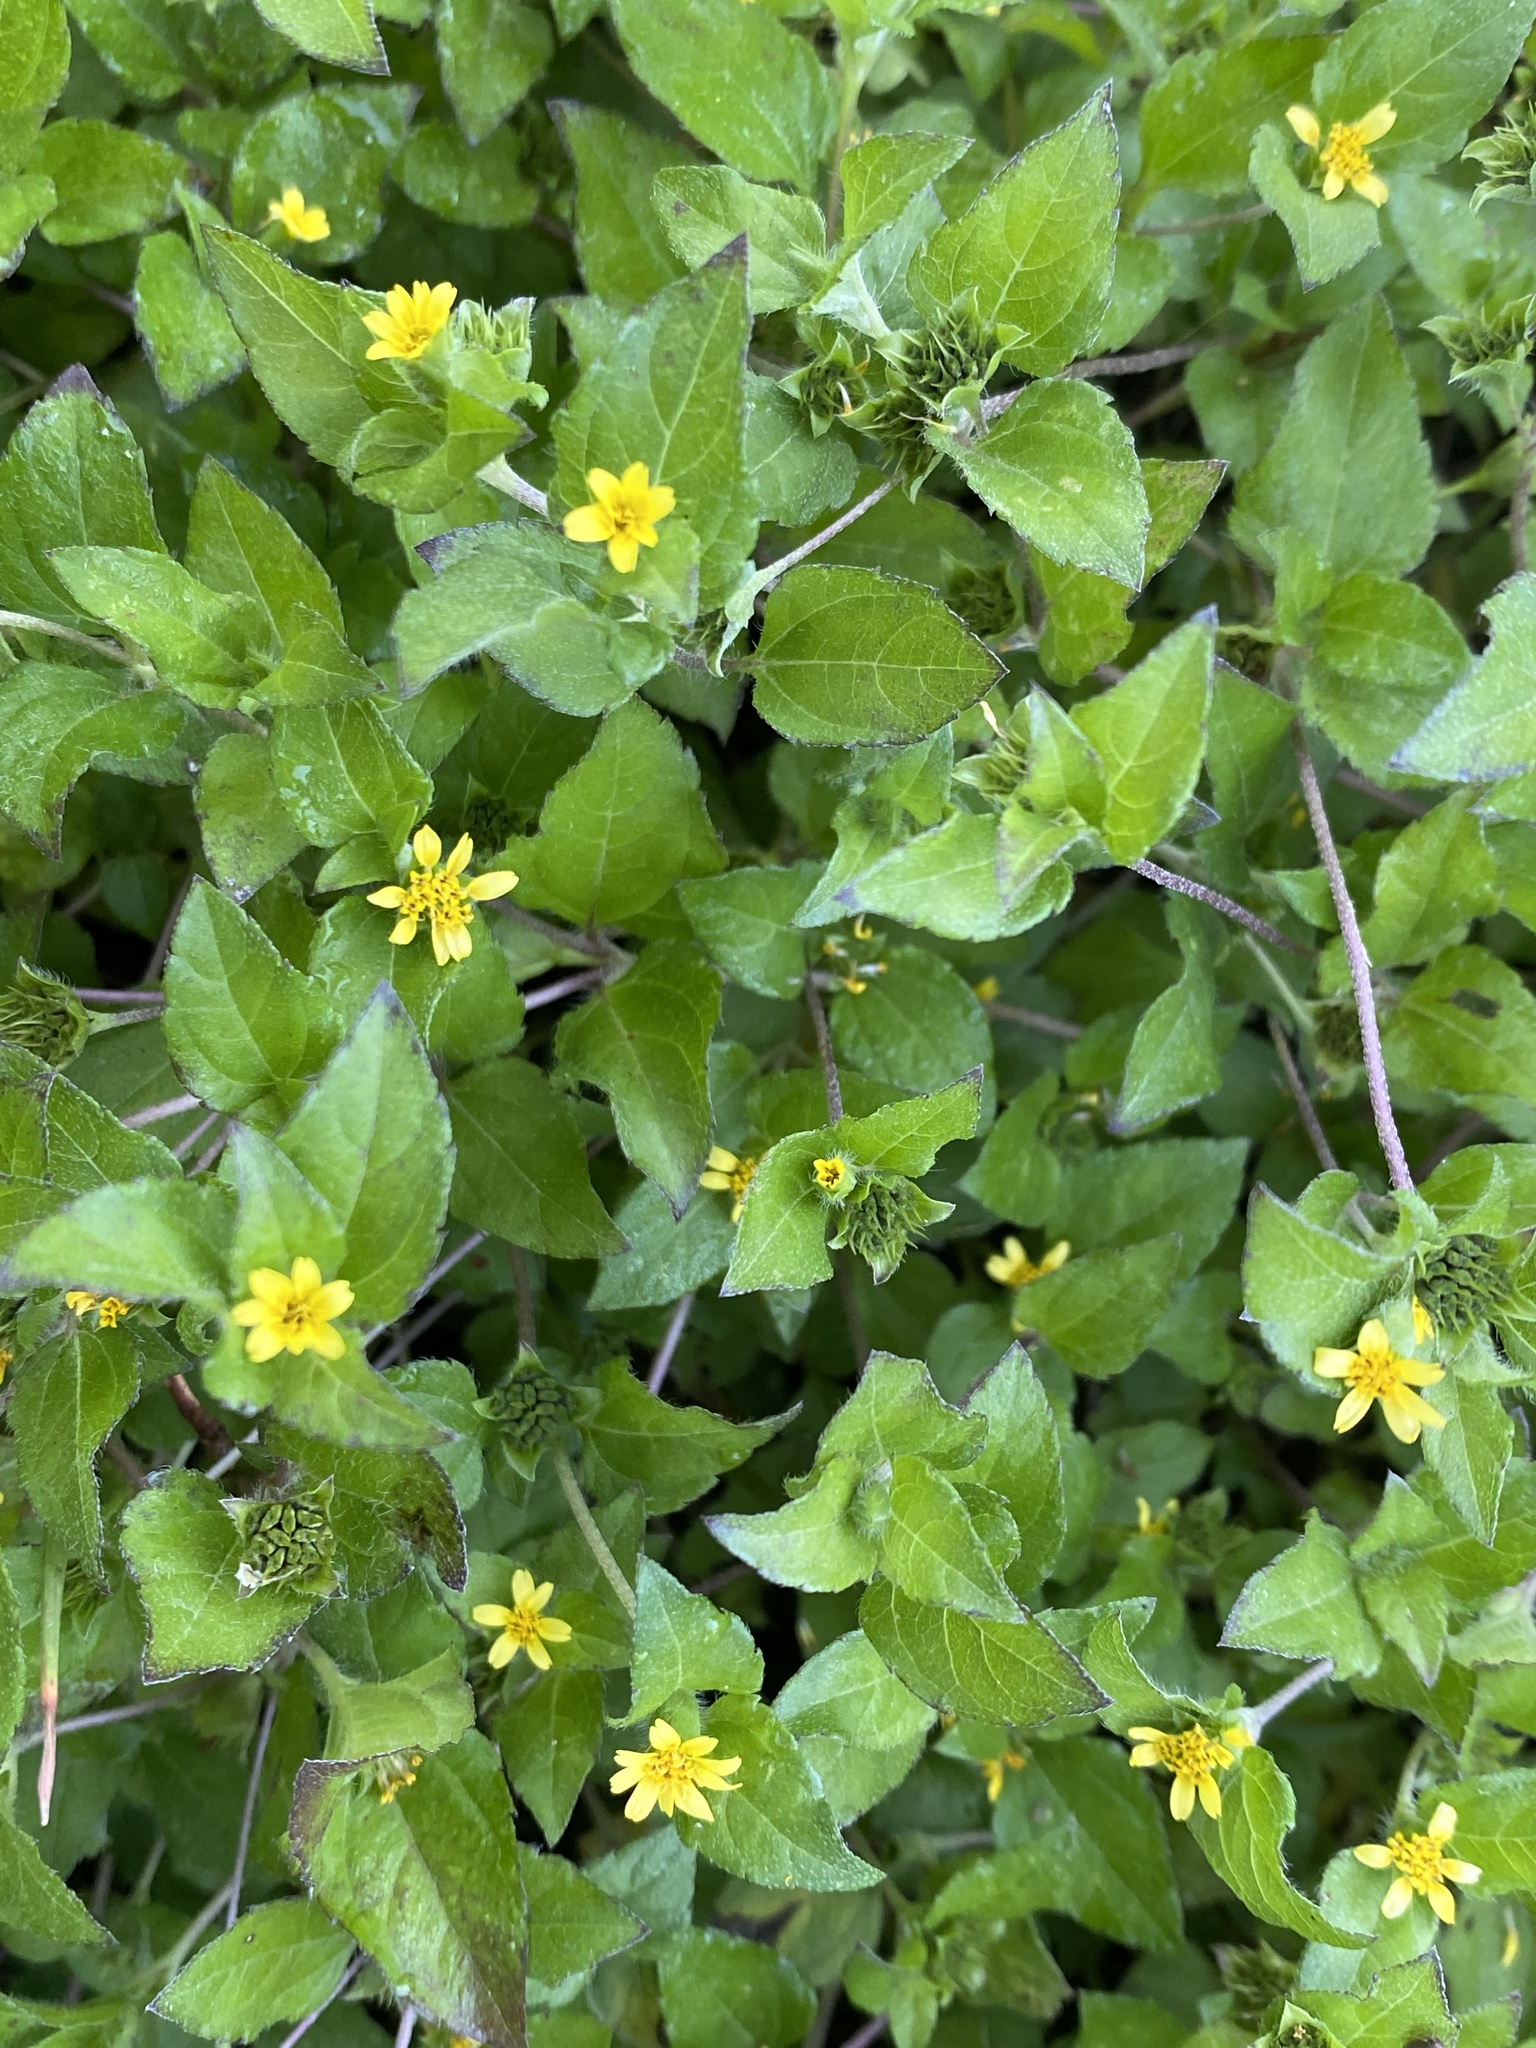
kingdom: Plantae
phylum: Tracheophyta
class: Magnoliopsida
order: Asterales
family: Asteraceae
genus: Calyptocarpus
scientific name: Calyptocarpus vialis
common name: Straggler daisy
